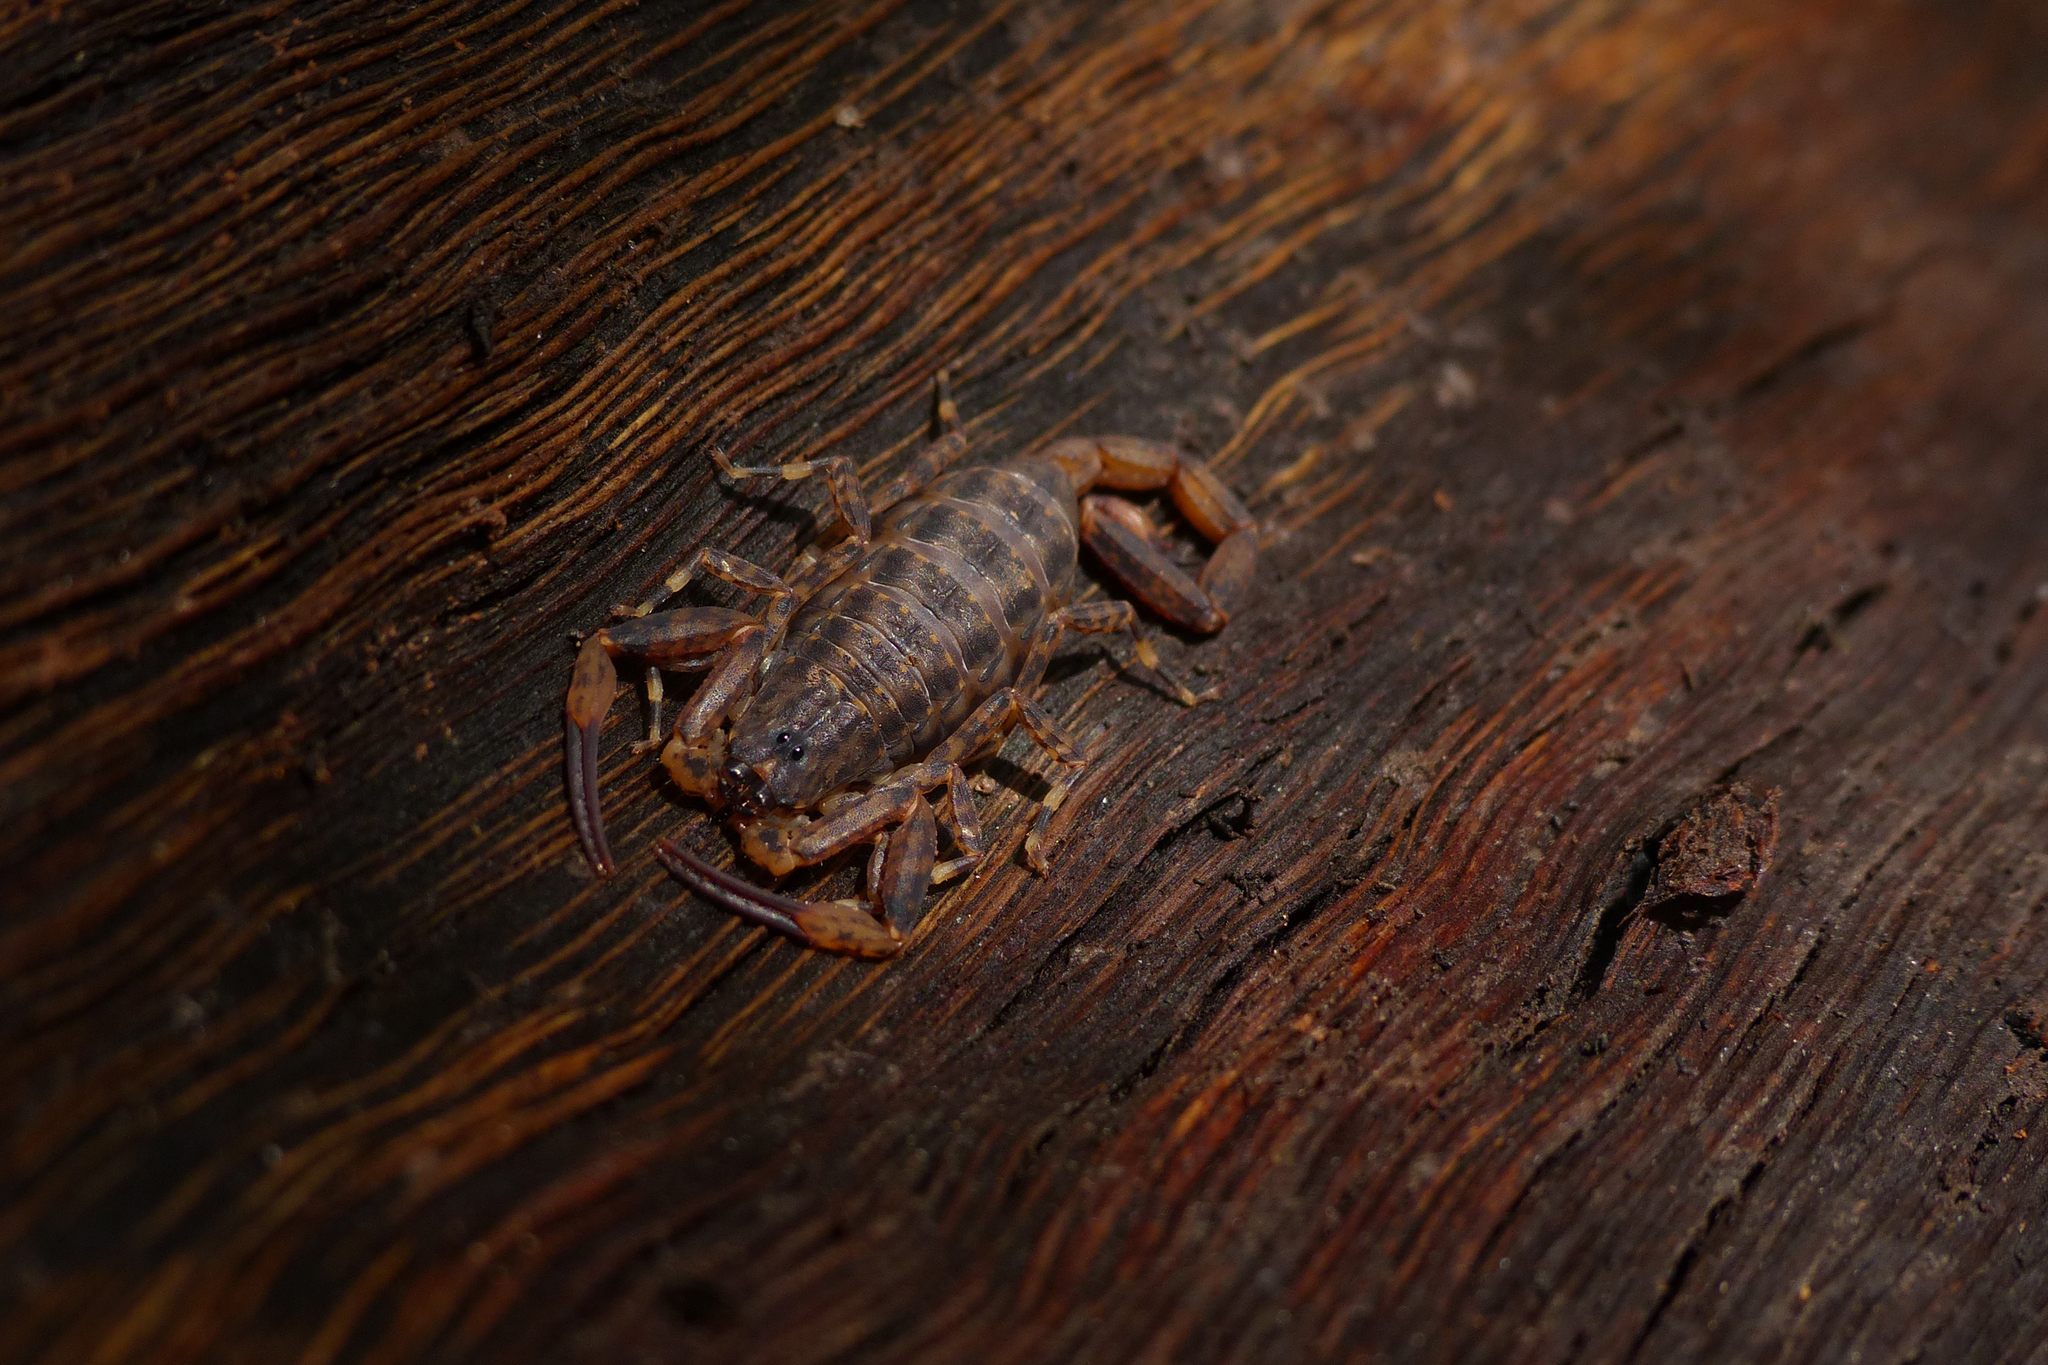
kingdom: Animalia
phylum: Arthropoda
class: Arachnida
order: Scorpiones
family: Buthidae
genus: Isometrus
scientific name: Isometrus thurstoni
